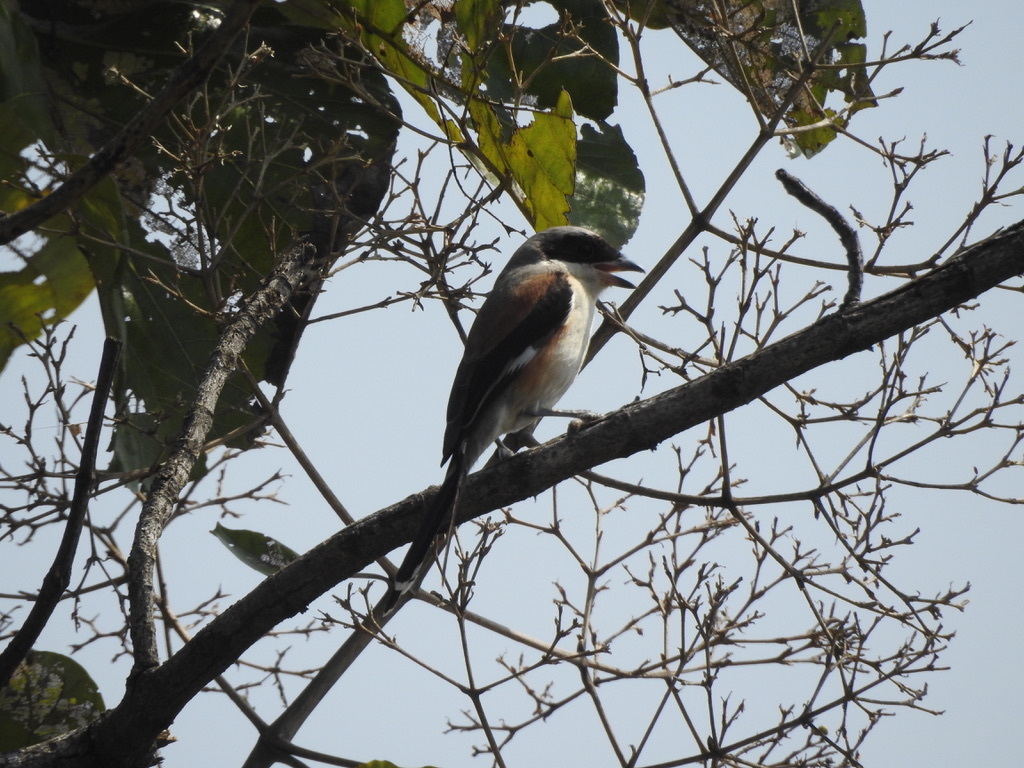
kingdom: Animalia
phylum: Chordata
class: Aves
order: Passeriformes
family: Laniidae
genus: Lanius
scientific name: Lanius vittatus
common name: Bay-backed shrike
